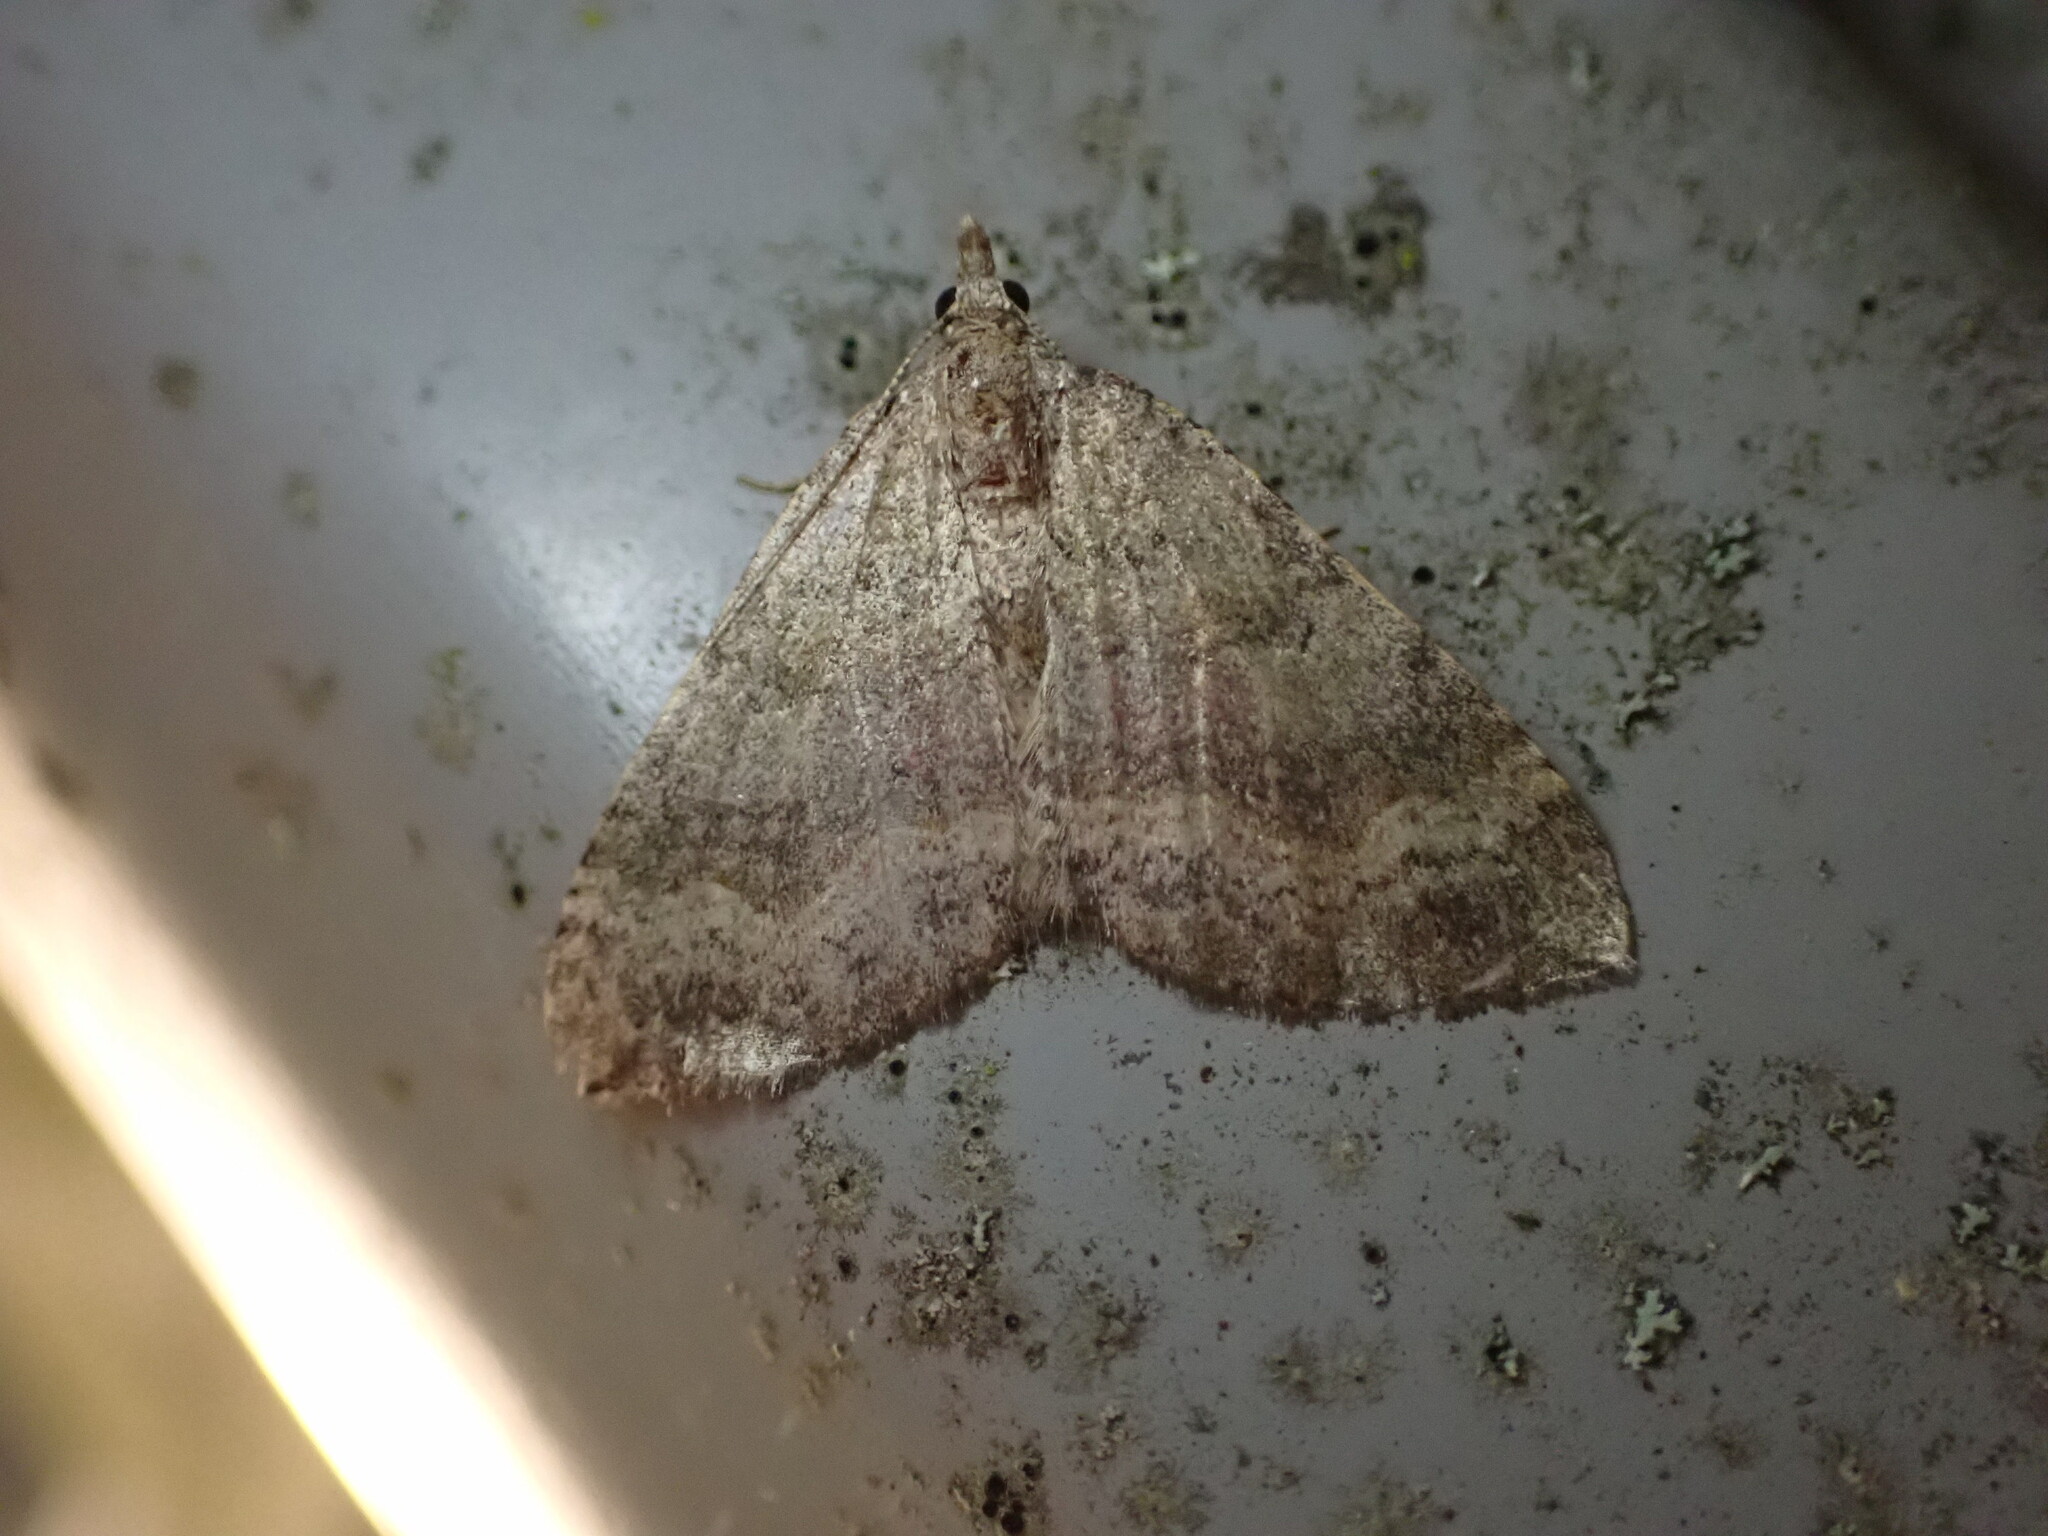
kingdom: Animalia
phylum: Arthropoda
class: Insecta
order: Lepidoptera
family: Geometridae
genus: Epyaxa
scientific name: Epyaxa rosearia
